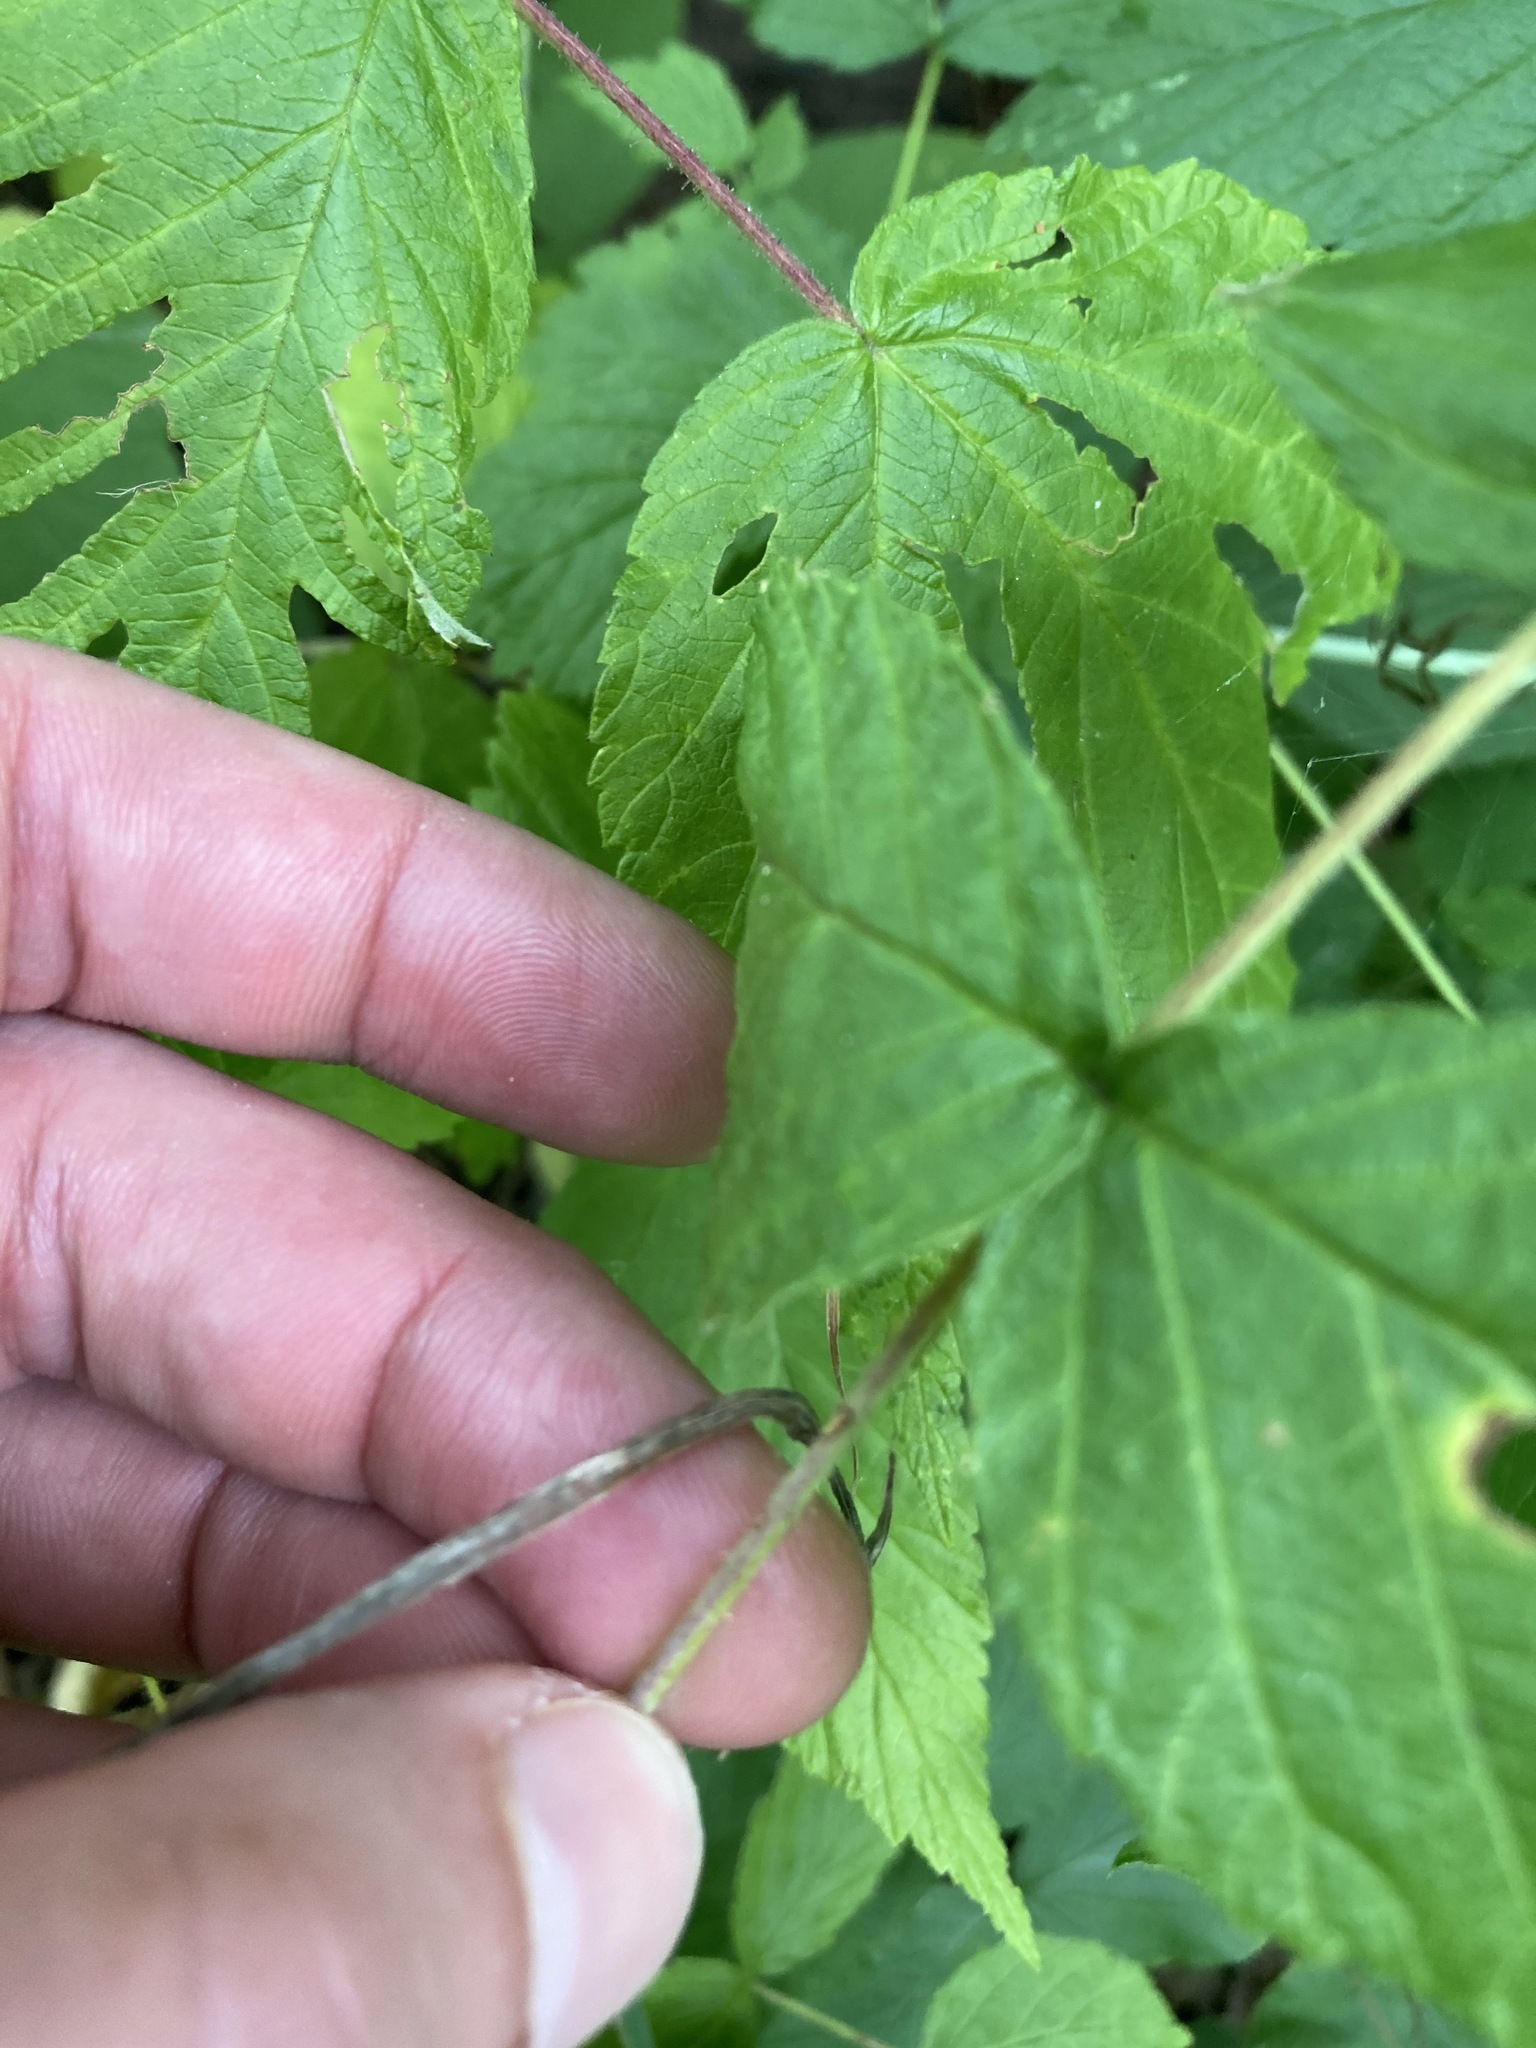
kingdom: Plantae
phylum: Tracheophyta
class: Magnoliopsida
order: Rosales
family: Rosaceae
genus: Rubus
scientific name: Rubus occidentalis
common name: Black raspberry
